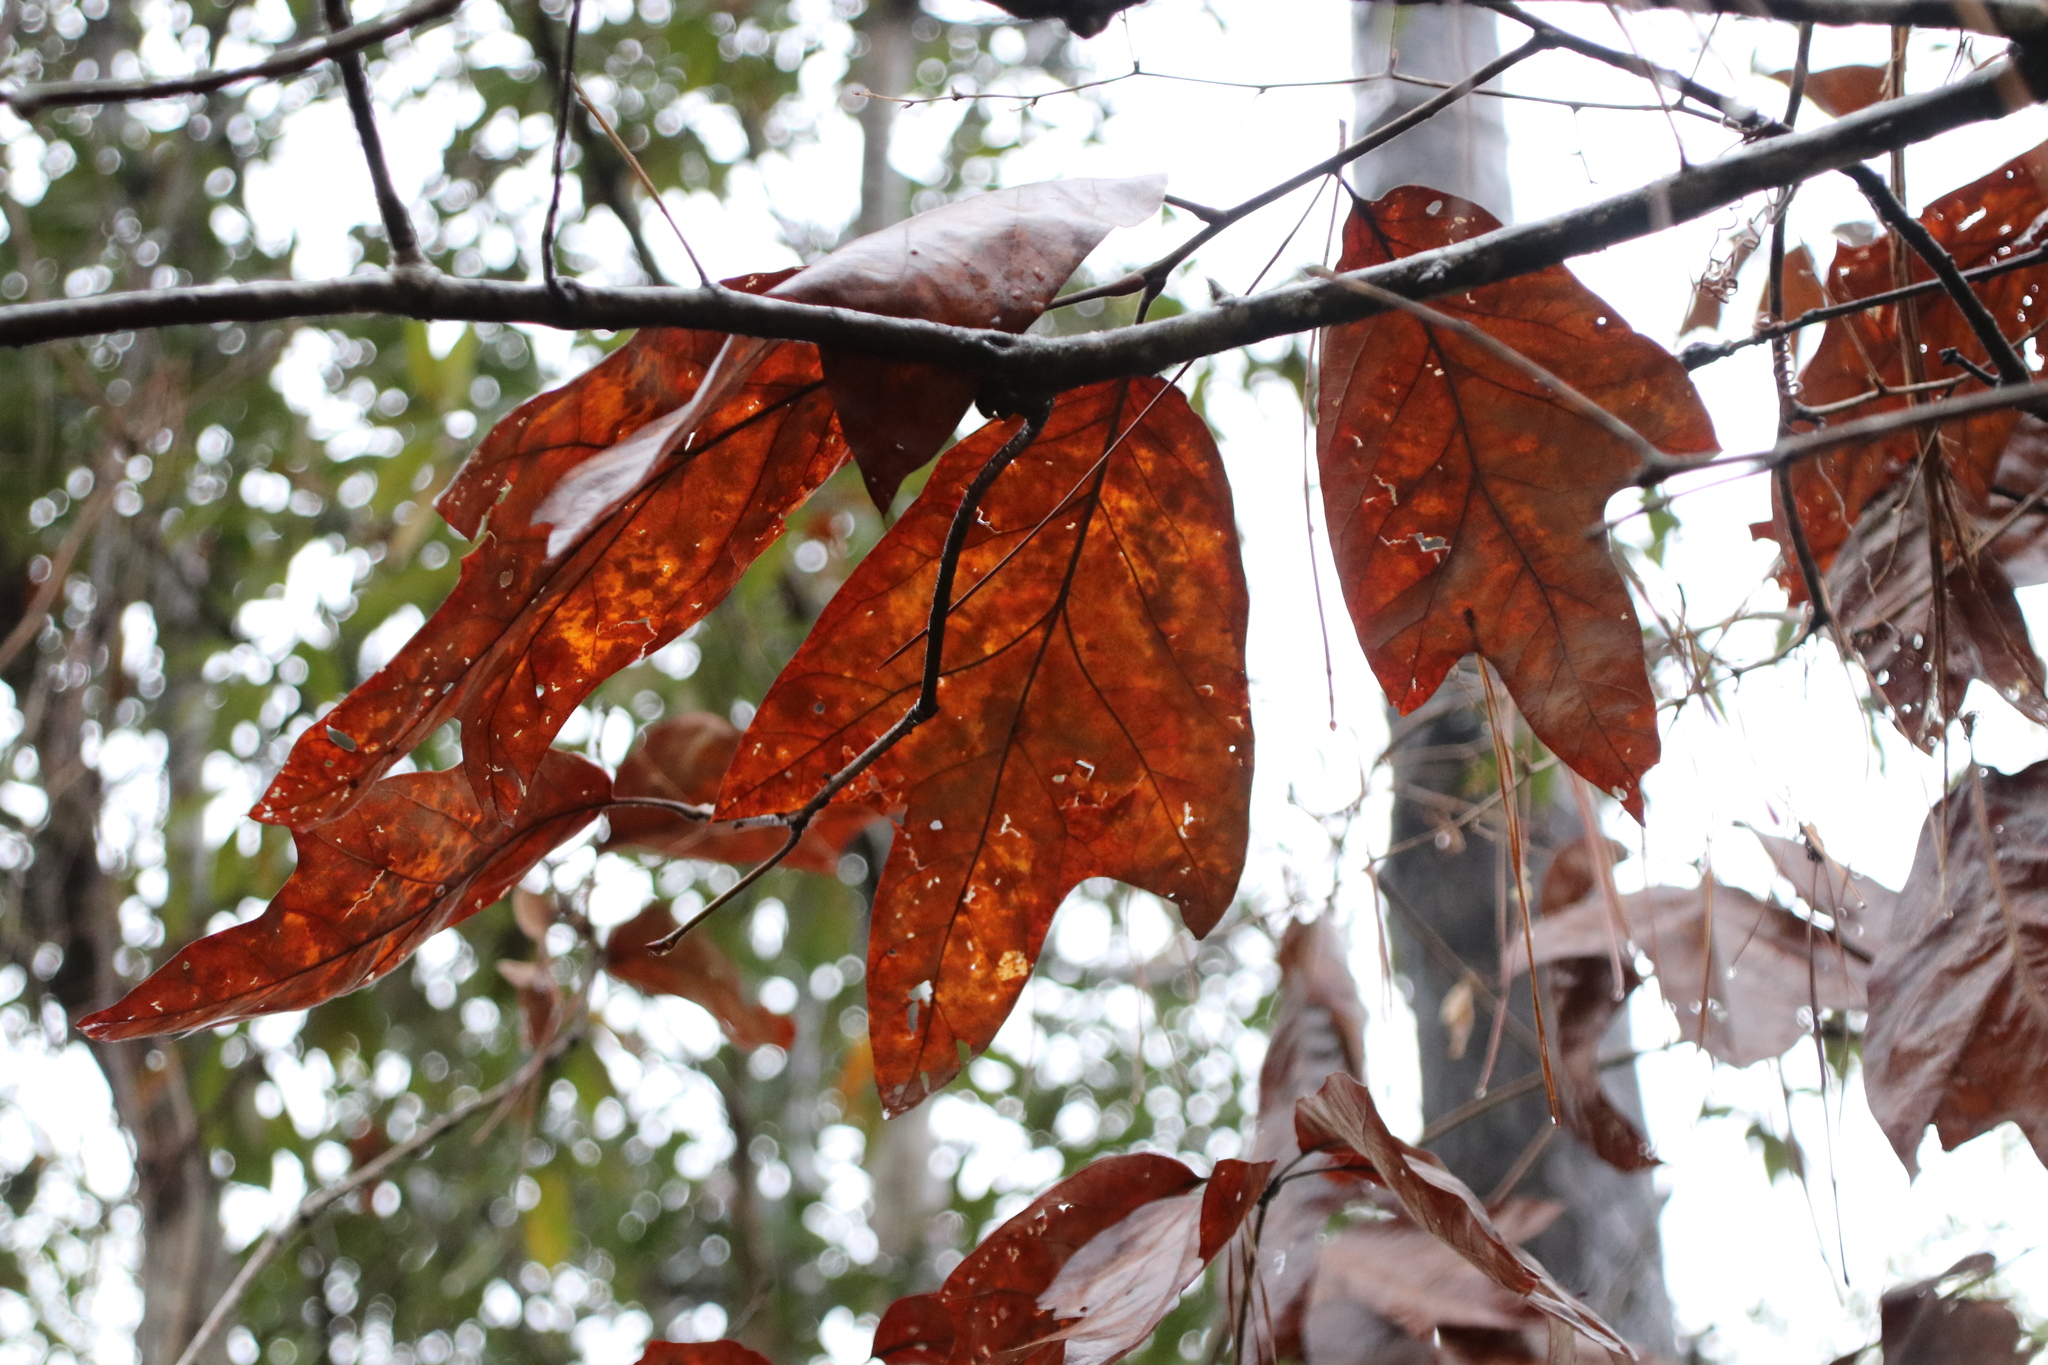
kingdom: Plantae
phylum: Tracheophyta
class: Magnoliopsida
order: Fagales
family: Fagaceae
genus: Quercus
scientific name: Quercus falcata
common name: Southern red oak
